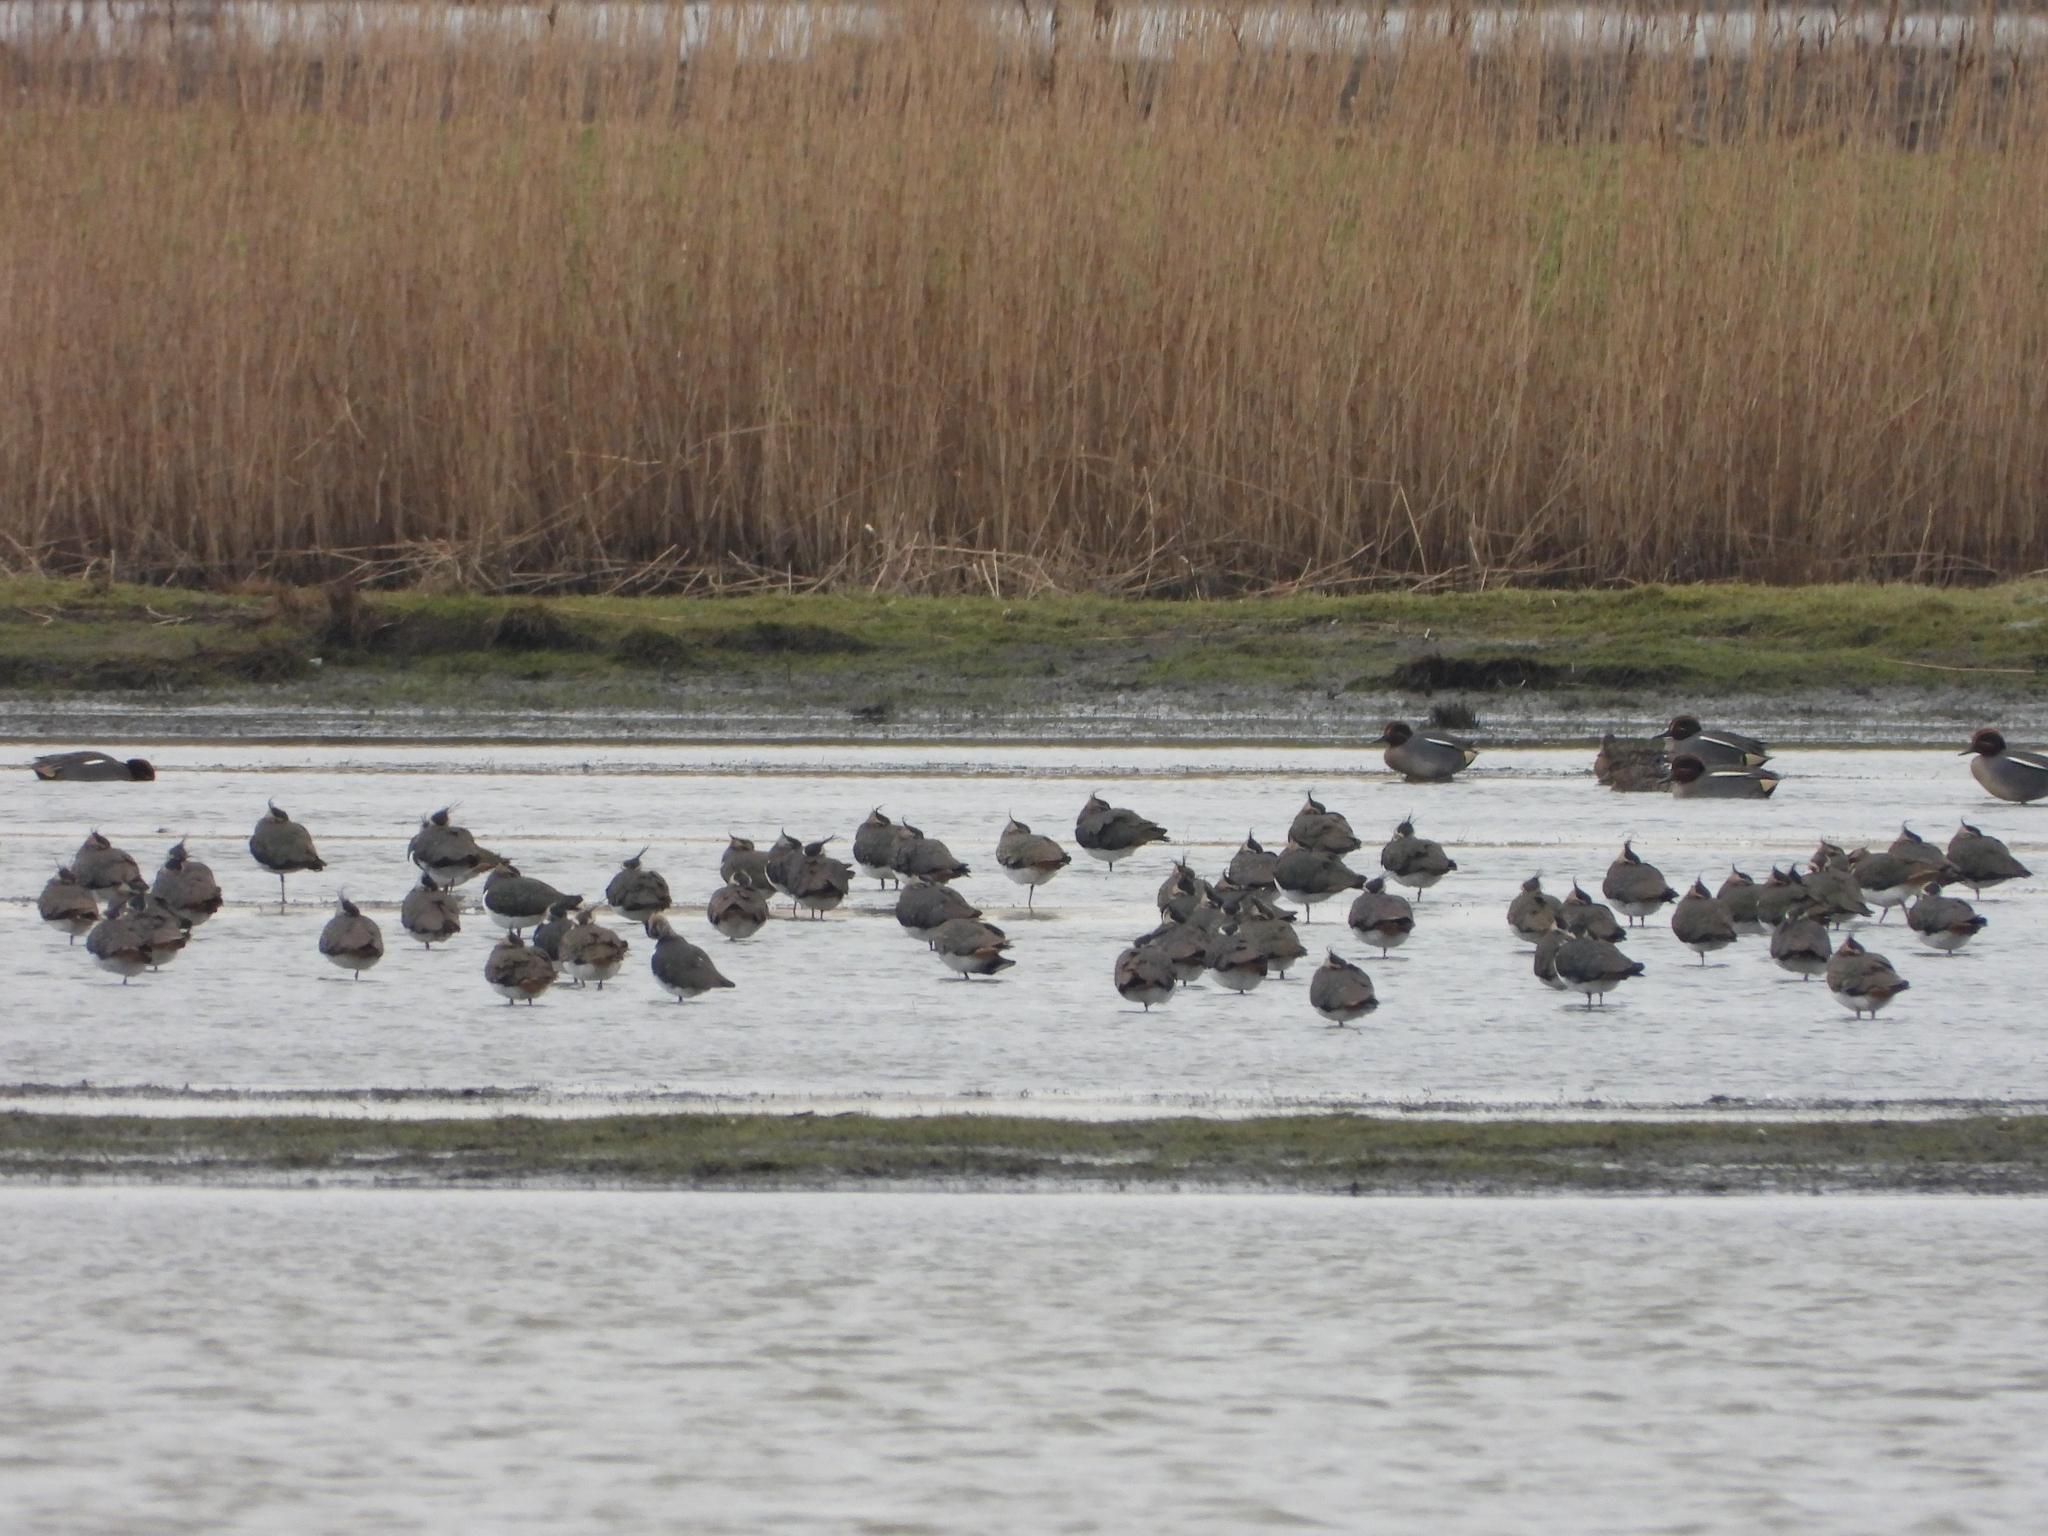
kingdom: Animalia
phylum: Chordata
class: Aves
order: Charadriiformes
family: Charadriidae
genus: Vanellus
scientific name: Vanellus vanellus
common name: Northern lapwing
